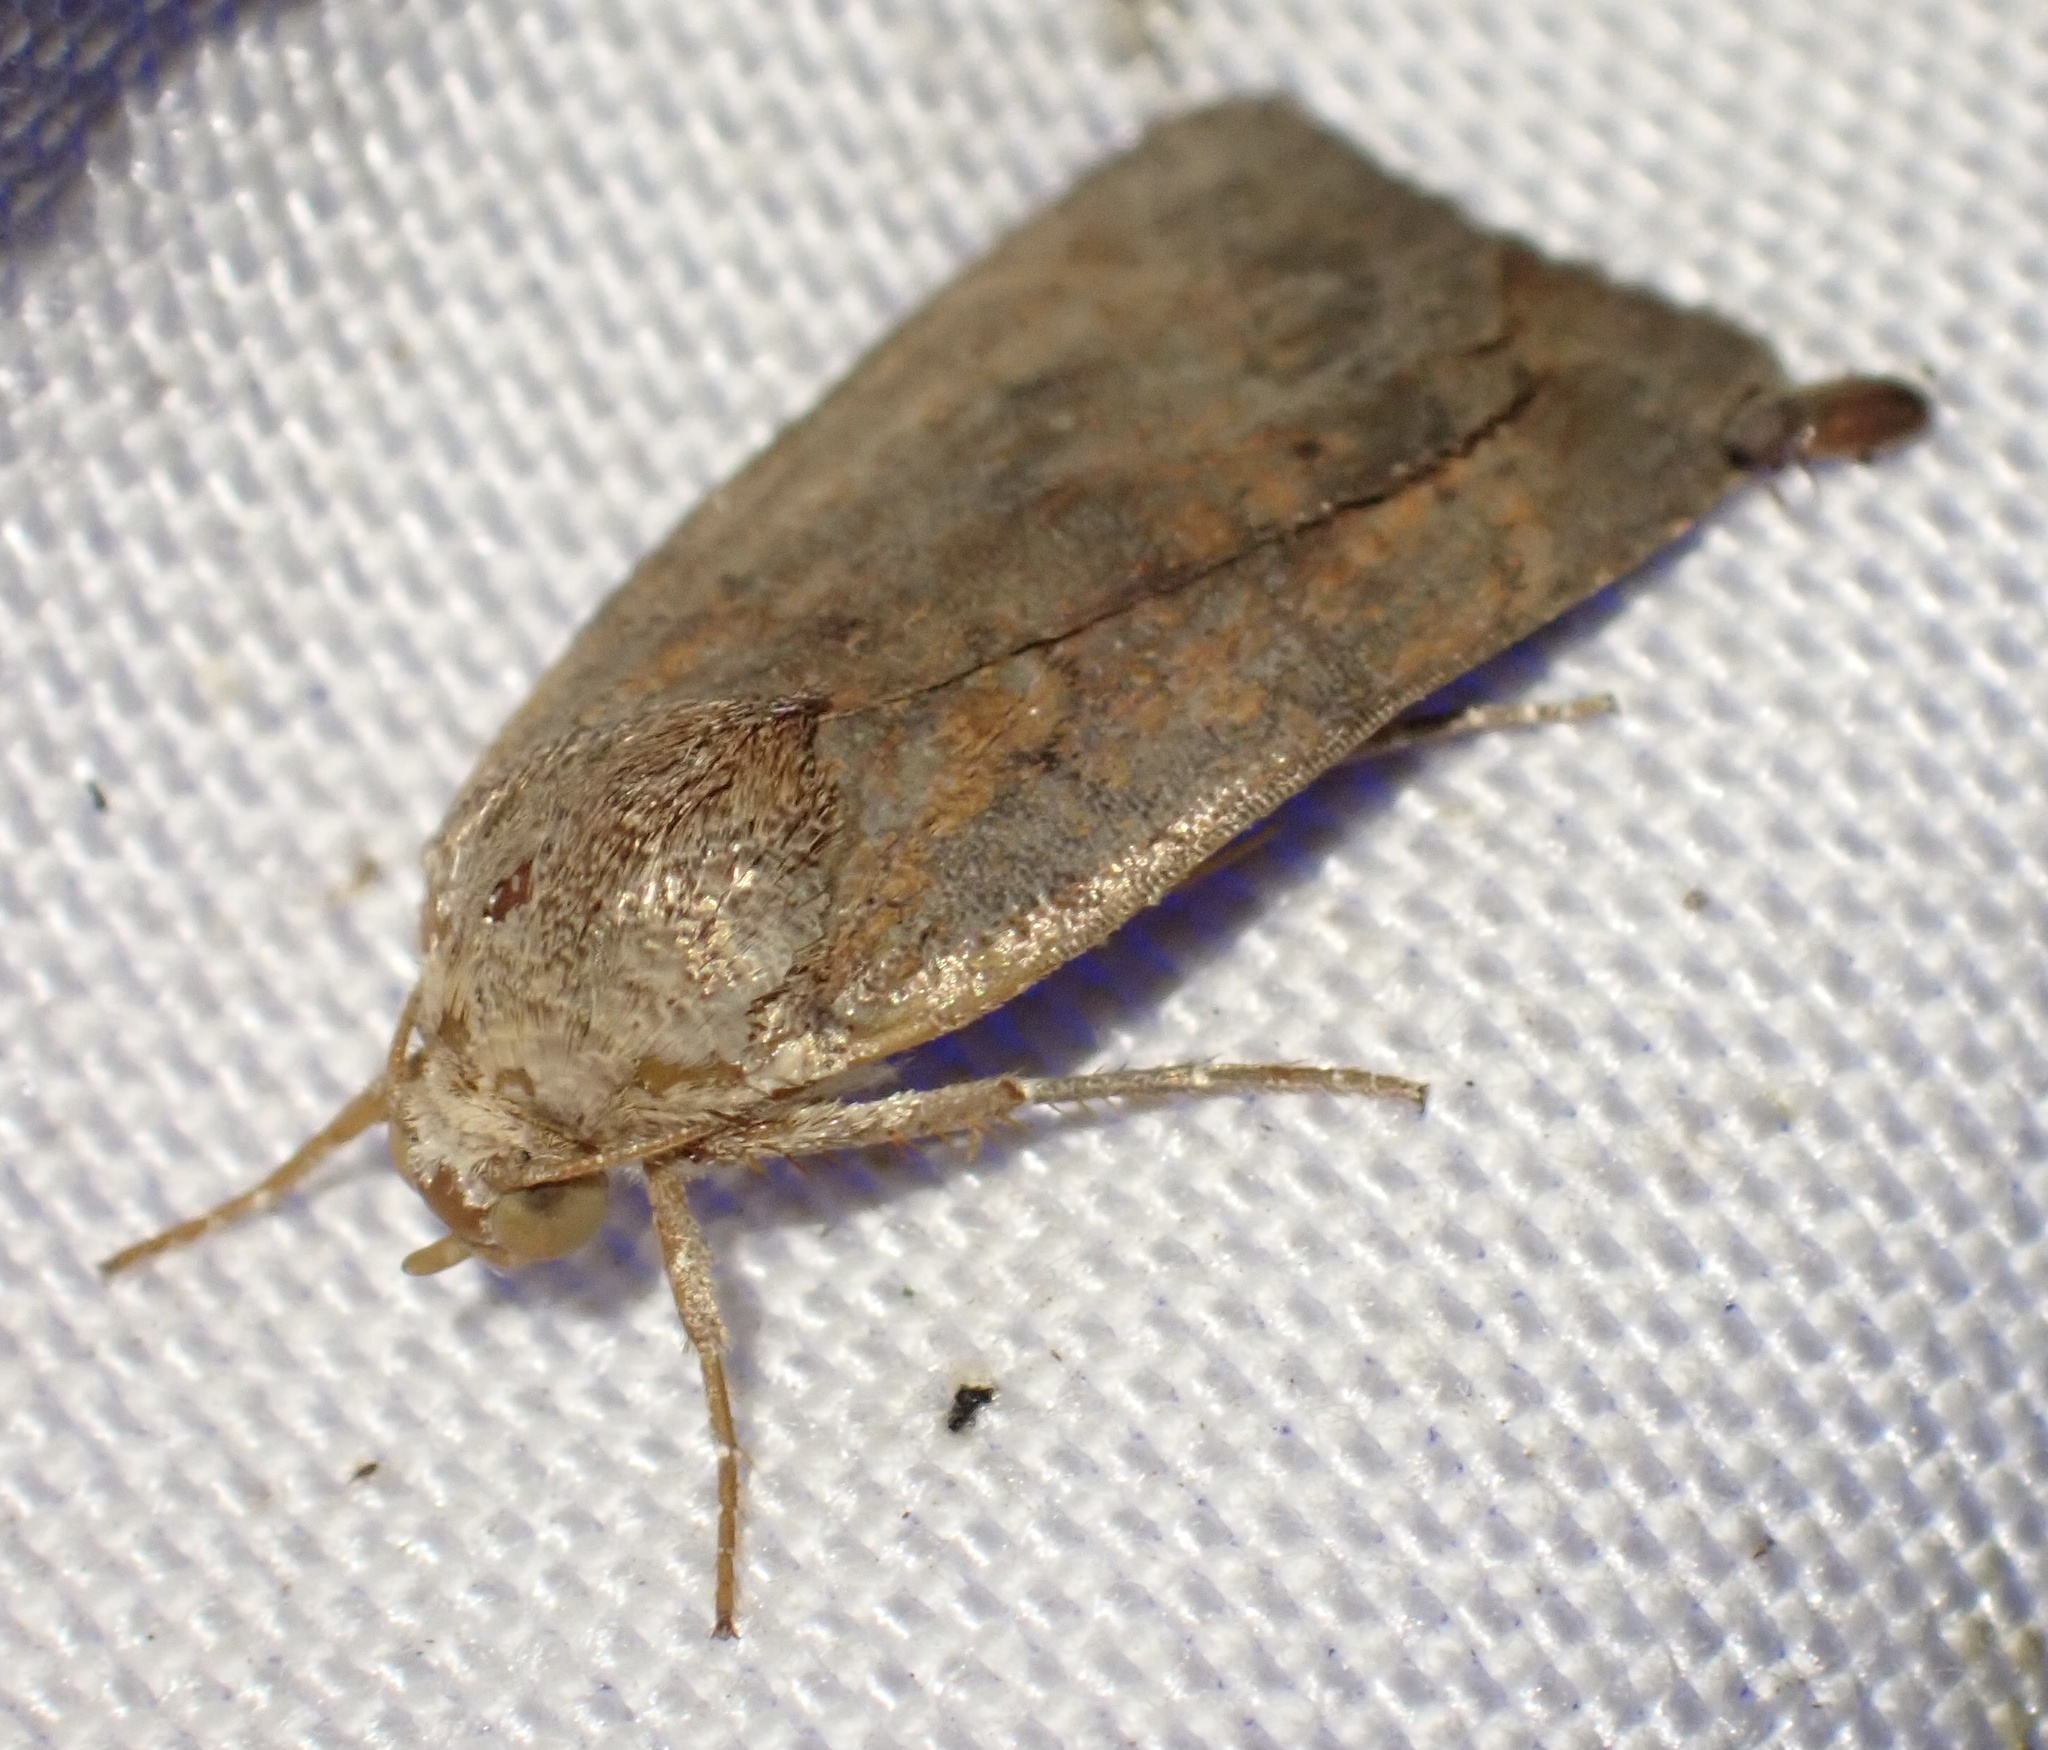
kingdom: Animalia
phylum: Arthropoda
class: Insecta
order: Lepidoptera
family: Noctuidae
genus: Noctua
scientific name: Noctua interjecta
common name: Least yellow underwing
